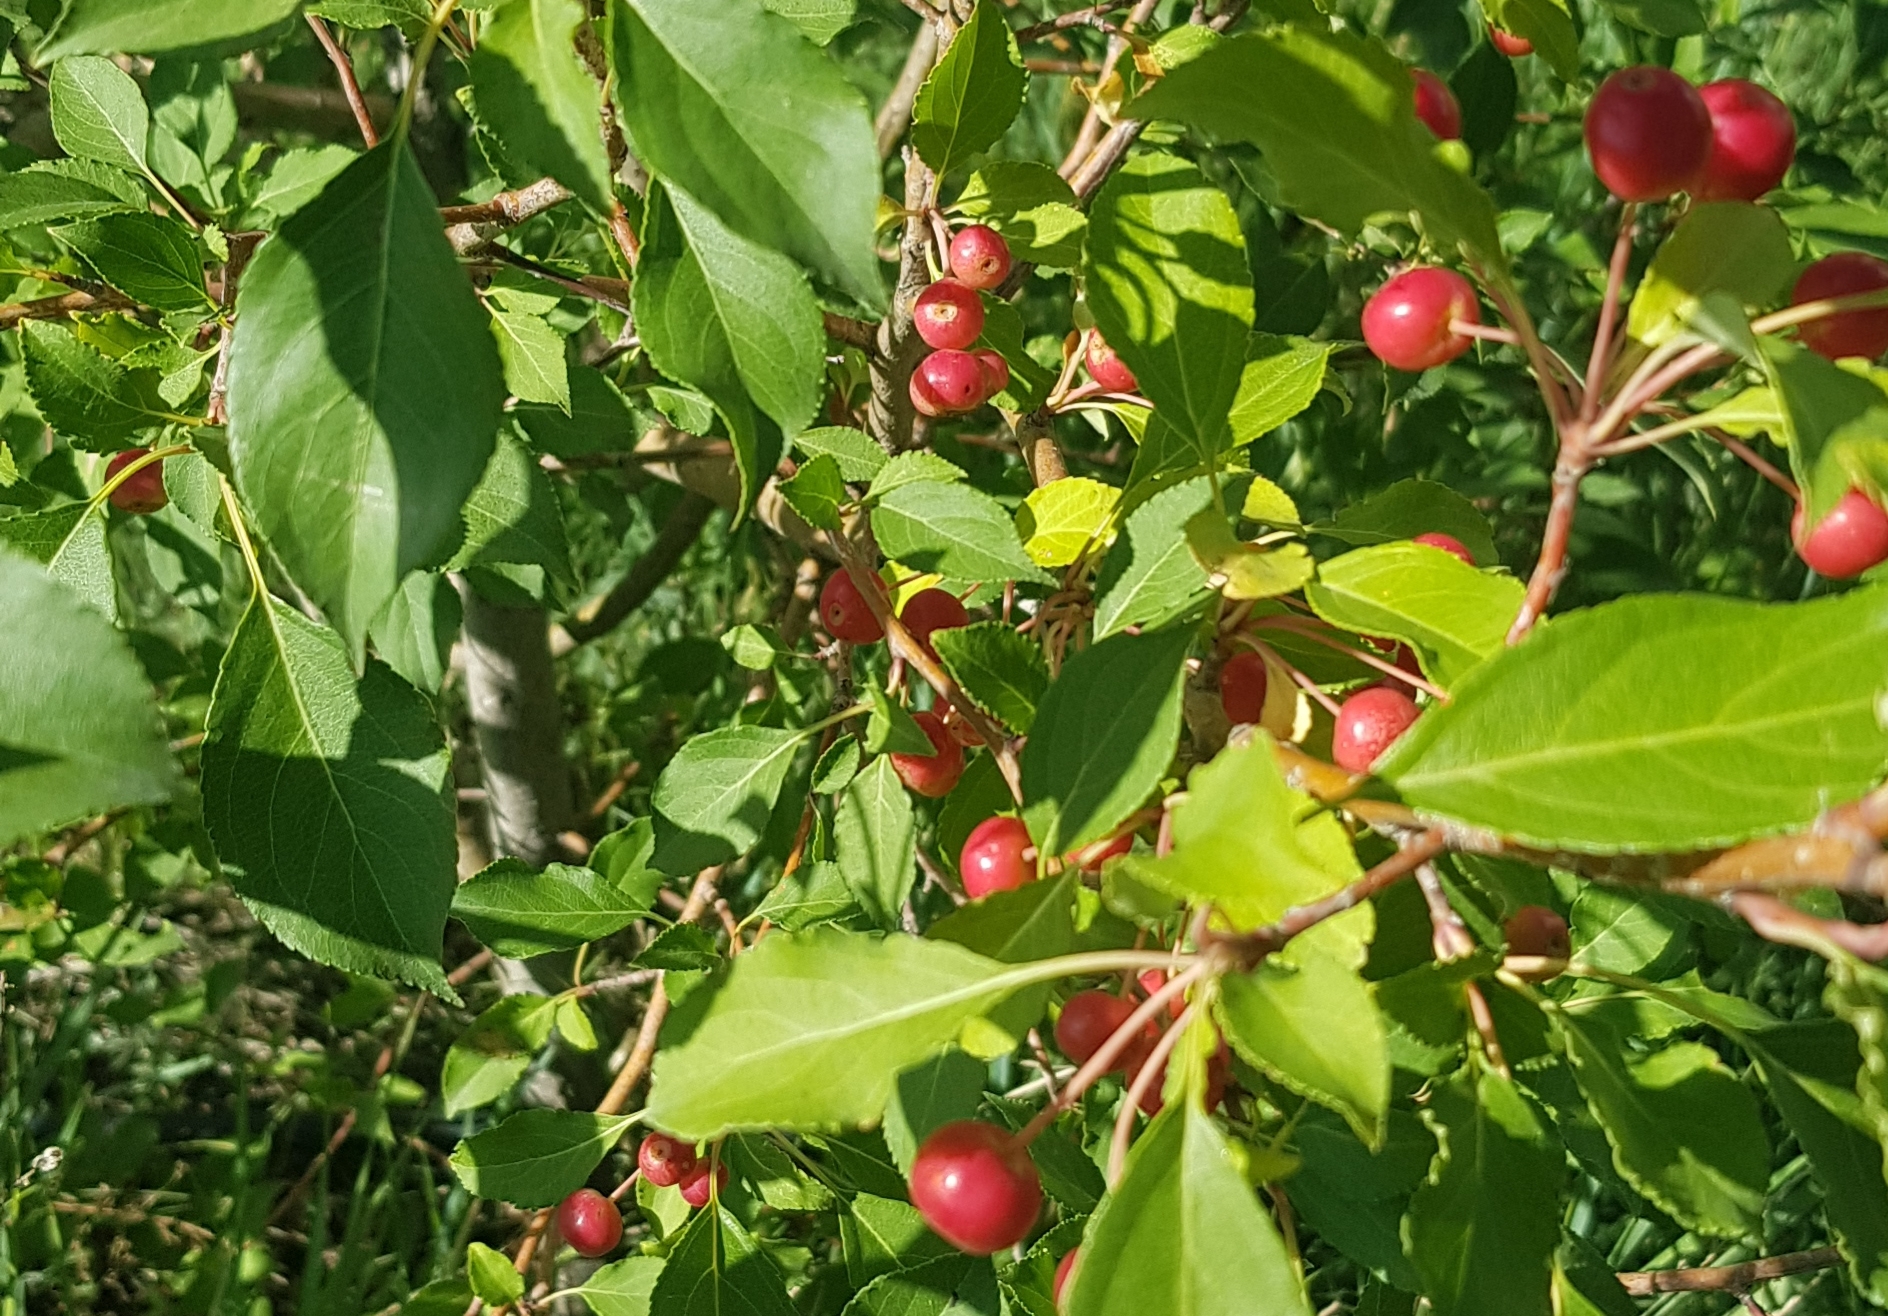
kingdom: Plantae
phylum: Tracheophyta
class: Magnoliopsida
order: Rosales
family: Rosaceae
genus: Malus
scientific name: Malus baccata
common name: Siberian crab
